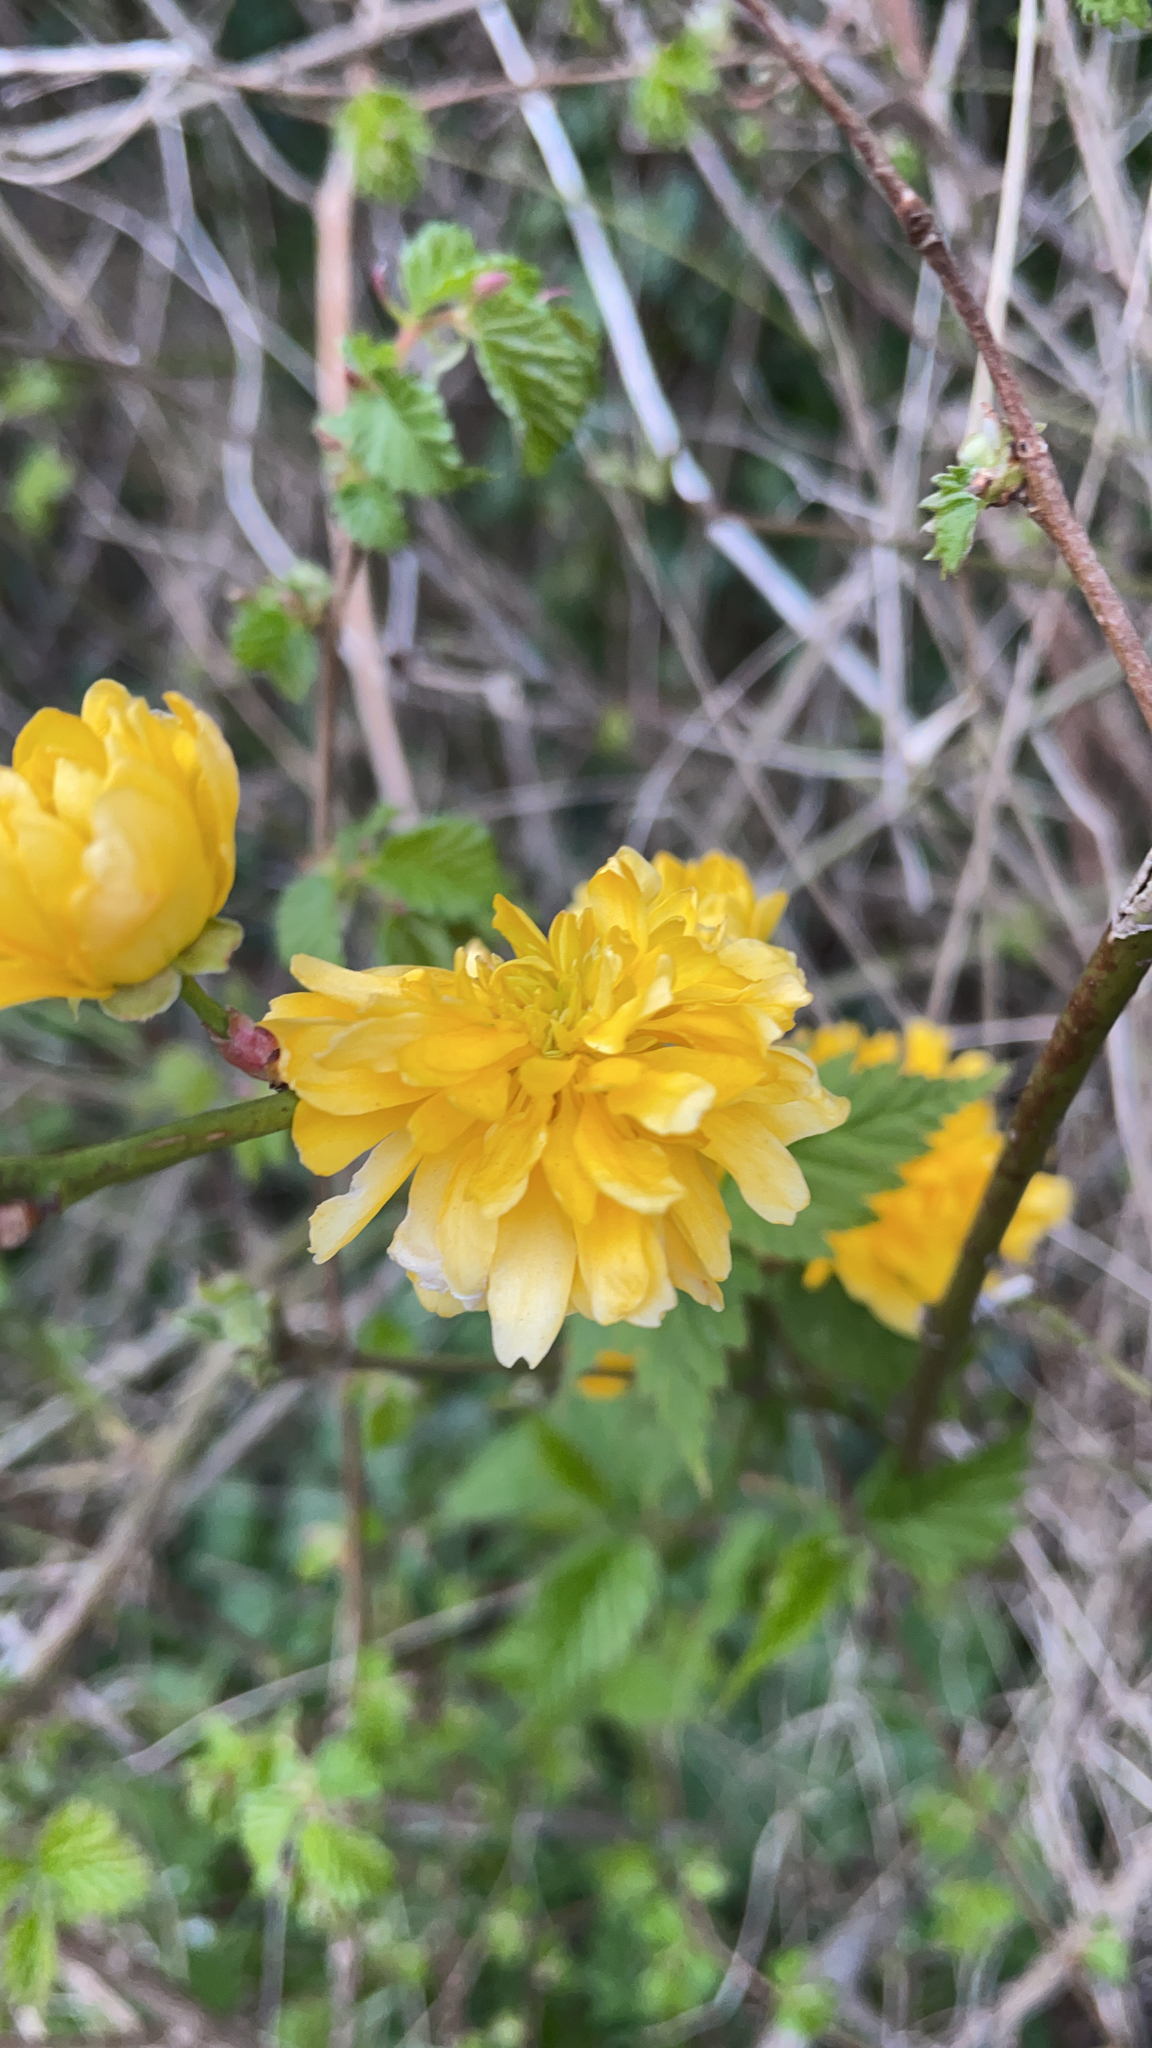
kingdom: Plantae
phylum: Tracheophyta
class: Magnoliopsida
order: Rosales
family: Rosaceae
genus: Kerria
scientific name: Kerria japonica
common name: Japanese kerria
